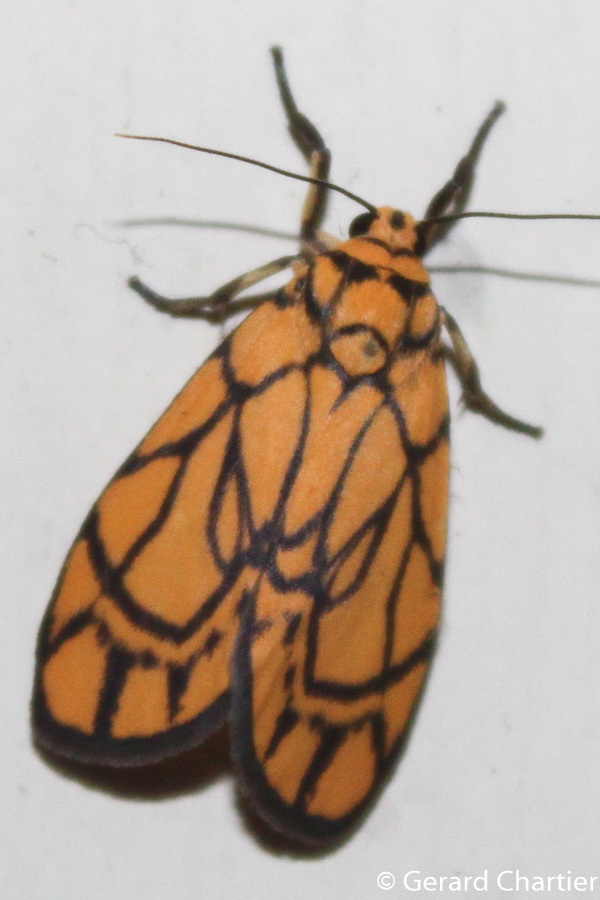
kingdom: Animalia
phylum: Arthropoda
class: Insecta
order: Lepidoptera
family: Erebidae
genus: Cyme
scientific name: Cyme euprepioides
